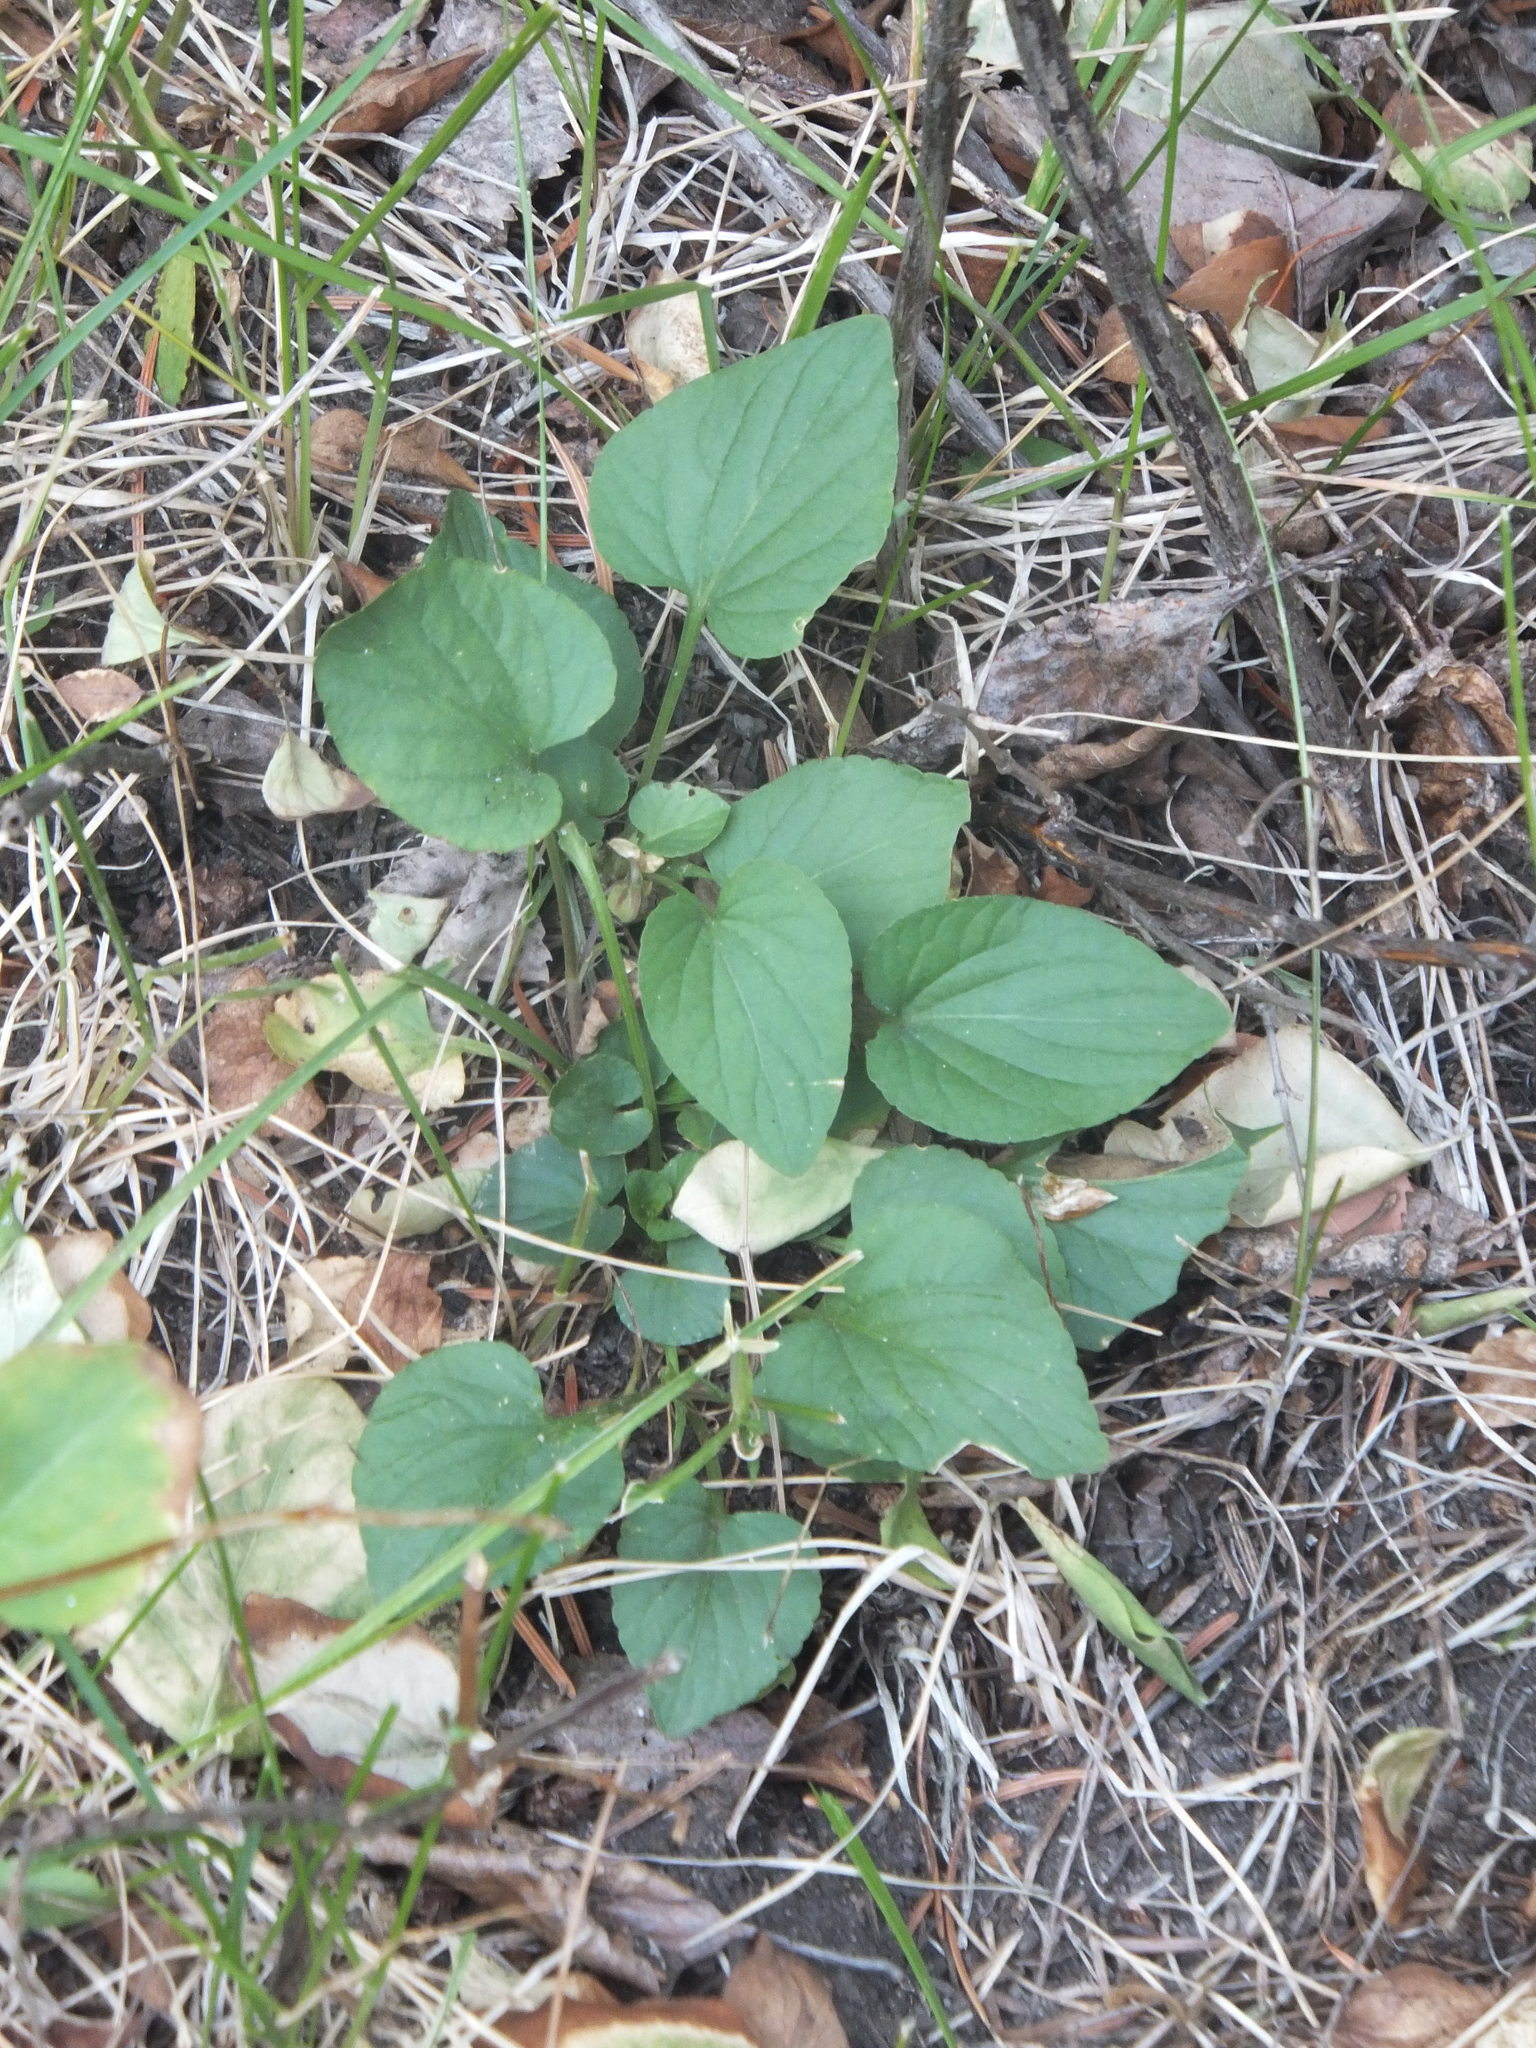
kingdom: Plantae
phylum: Tracheophyta
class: Magnoliopsida
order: Malpighiales
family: Violaceae
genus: Viola
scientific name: Viola adunca
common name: Sand violet
